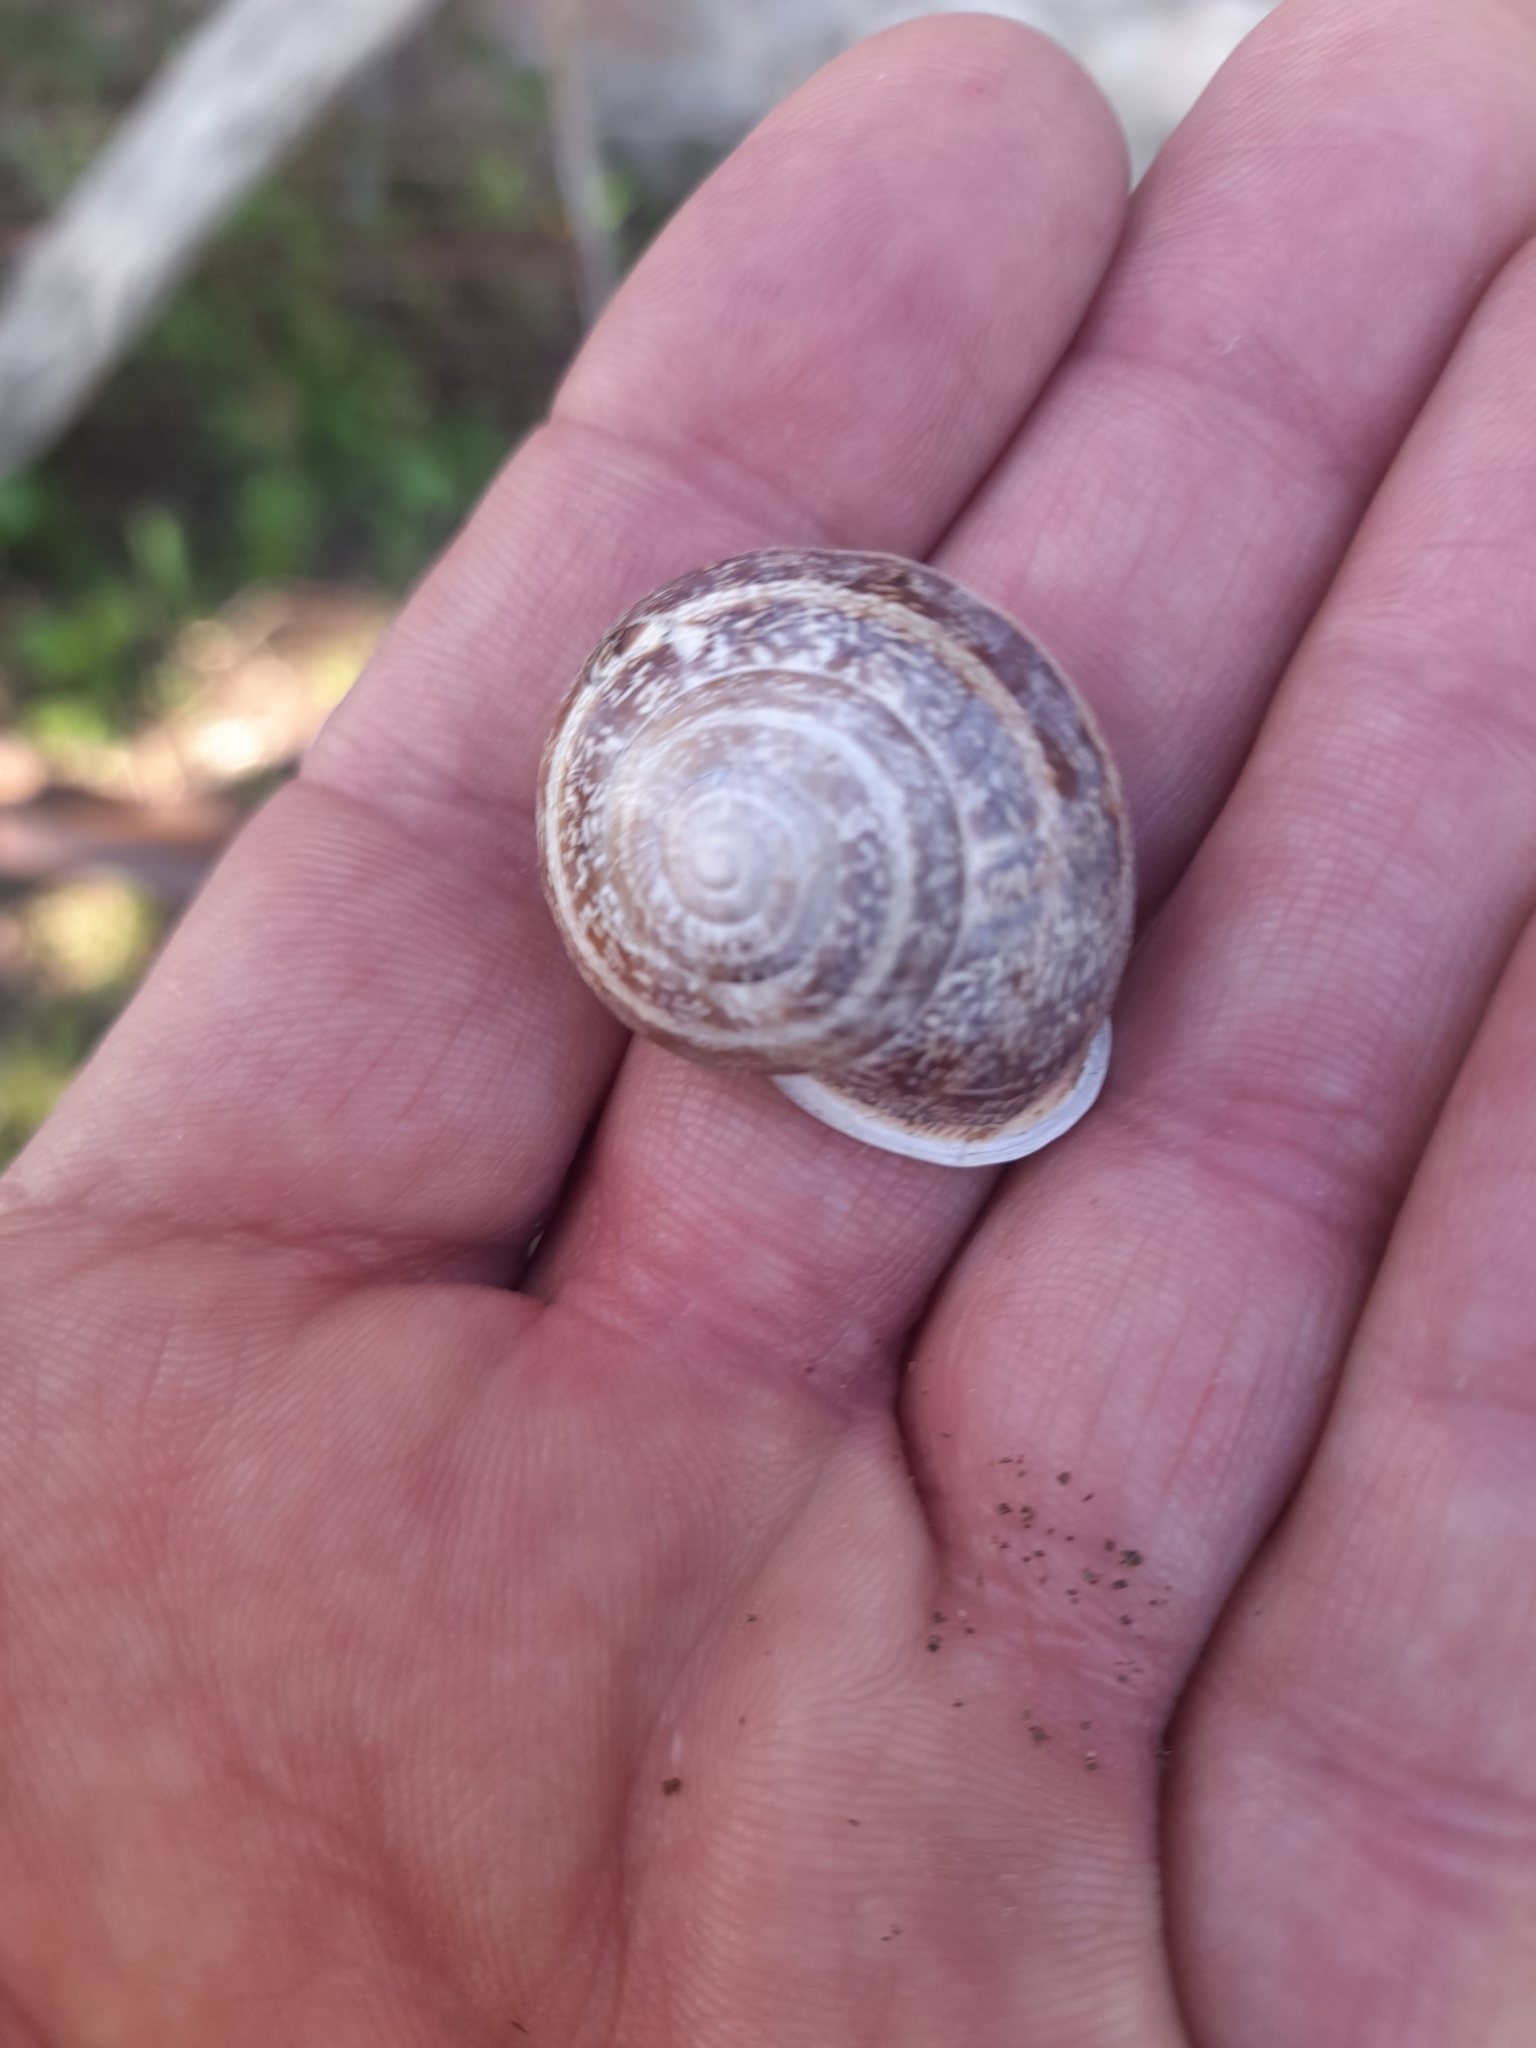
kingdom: Animalia
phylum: Mollusca
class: Gastropoda
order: Stylommatophora
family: Helicidae
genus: Eobania
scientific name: Eobania vermiculata
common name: Chocolateband snail
